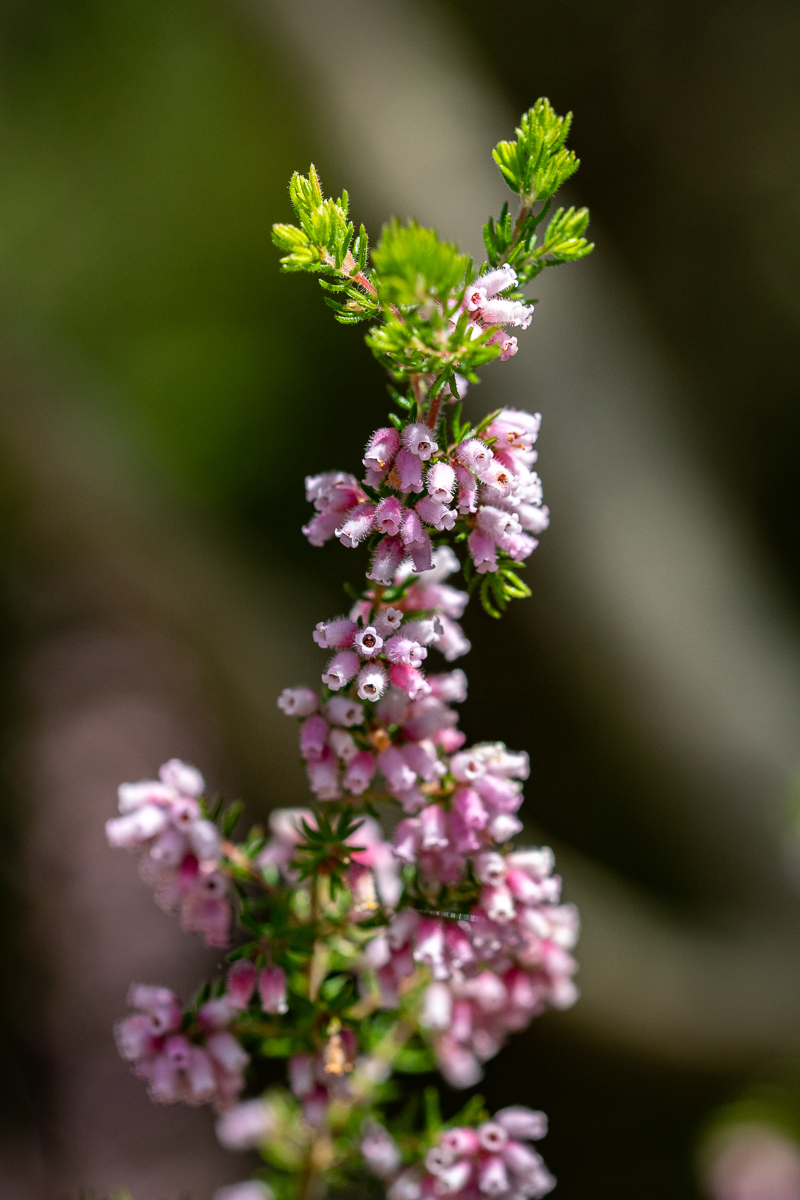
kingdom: Plantae
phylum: Tracheophyta
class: Magnoliopsida
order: Ericales
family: Ericaceae
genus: Erica
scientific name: Erica parviflora
